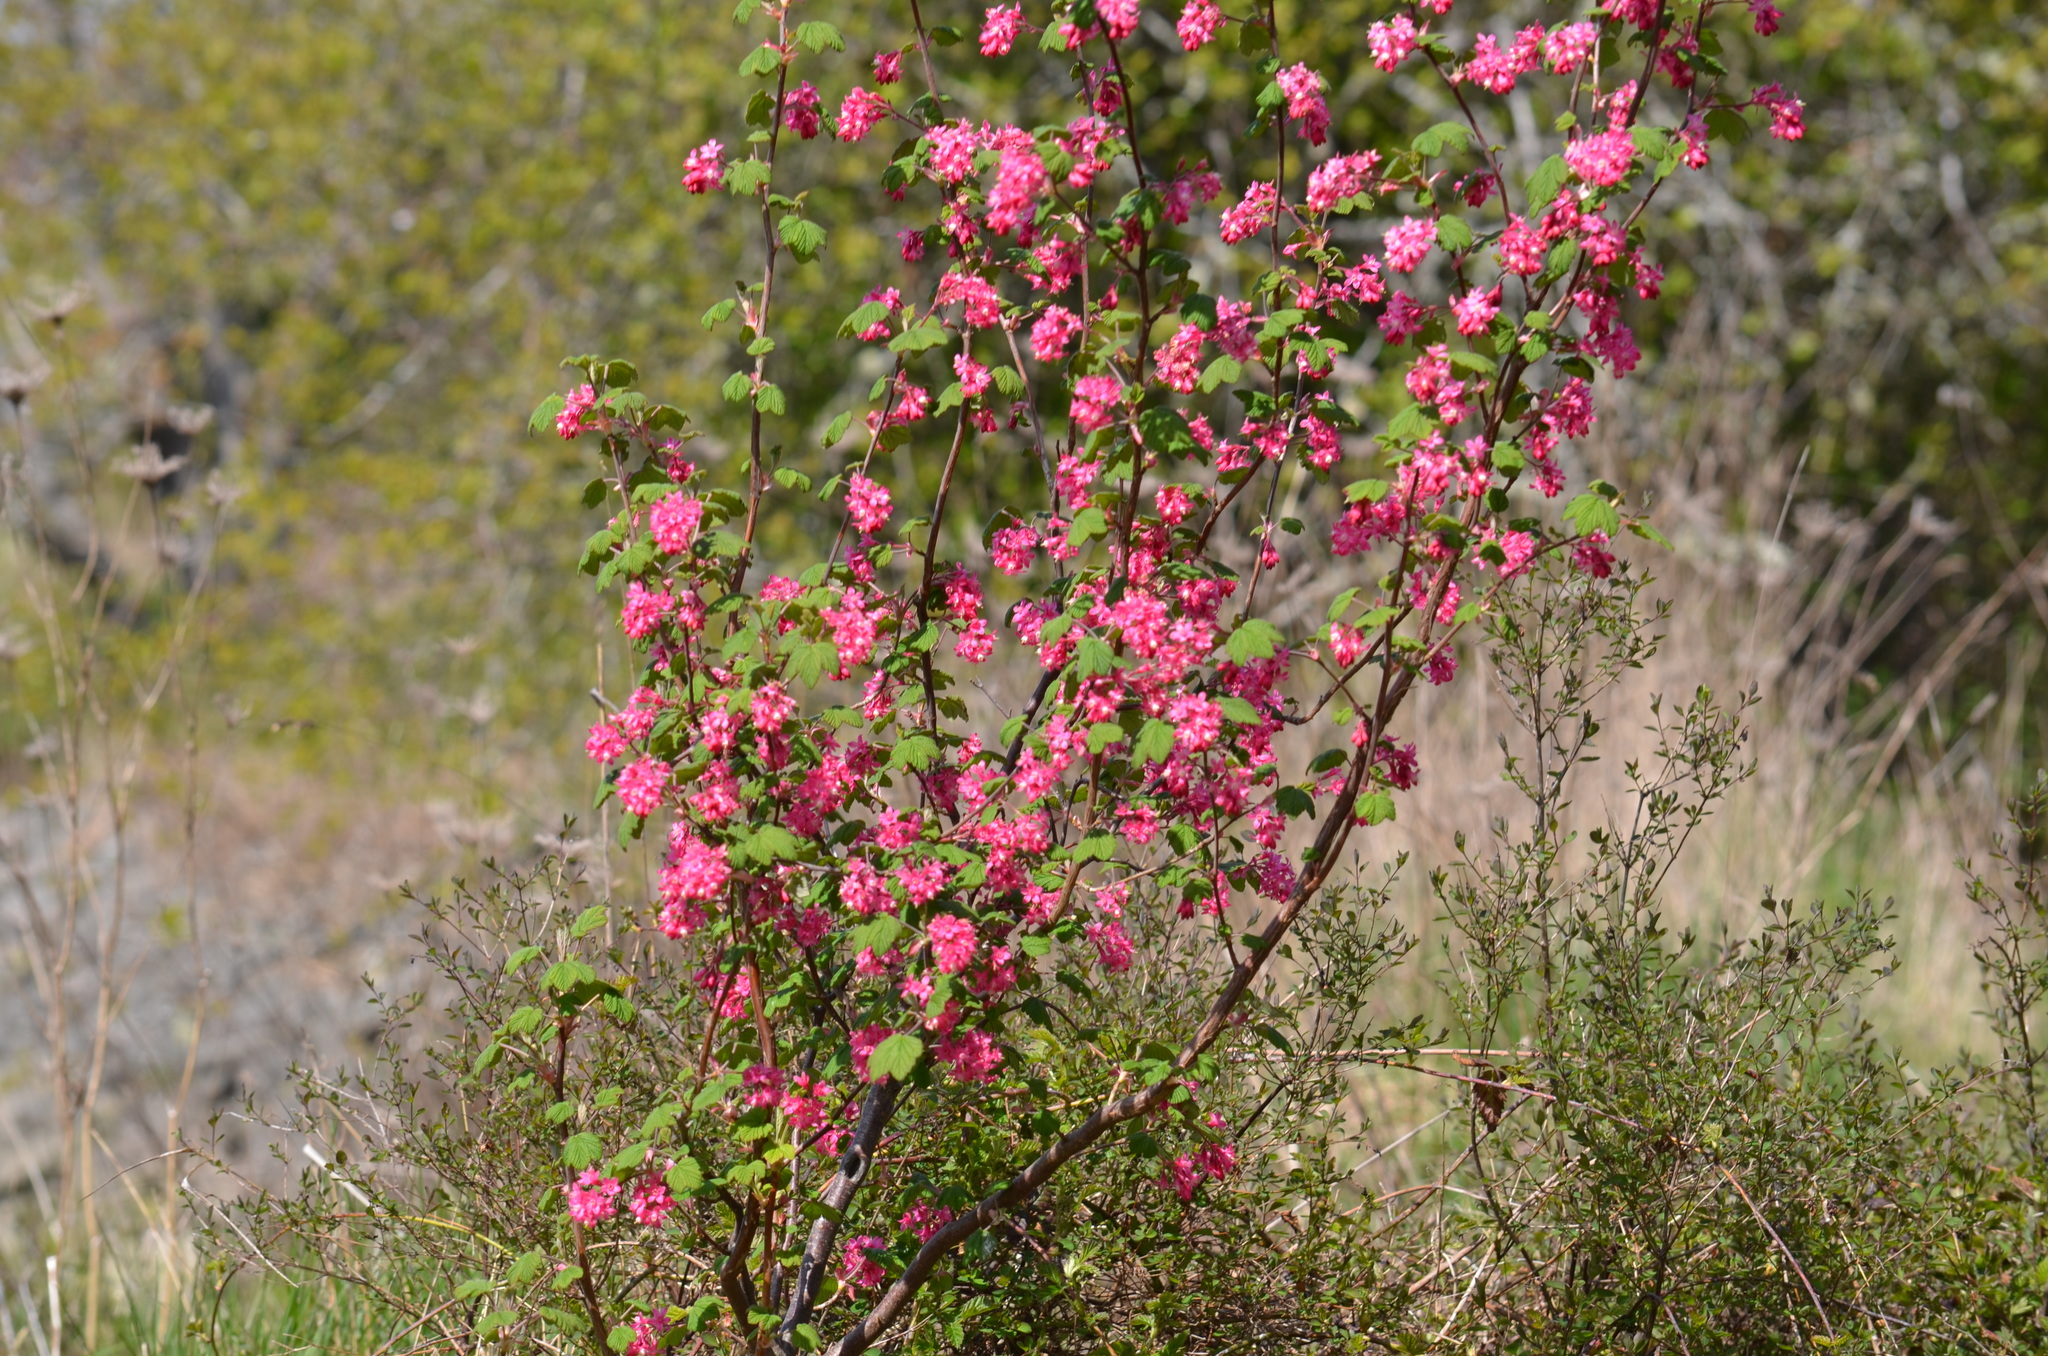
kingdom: Plantae
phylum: Tracheophyta
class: Magnoliopsida
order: Saxifragales
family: Grossulariaceae
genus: Ribes
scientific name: Ribes sanguineum
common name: Flowering currant
